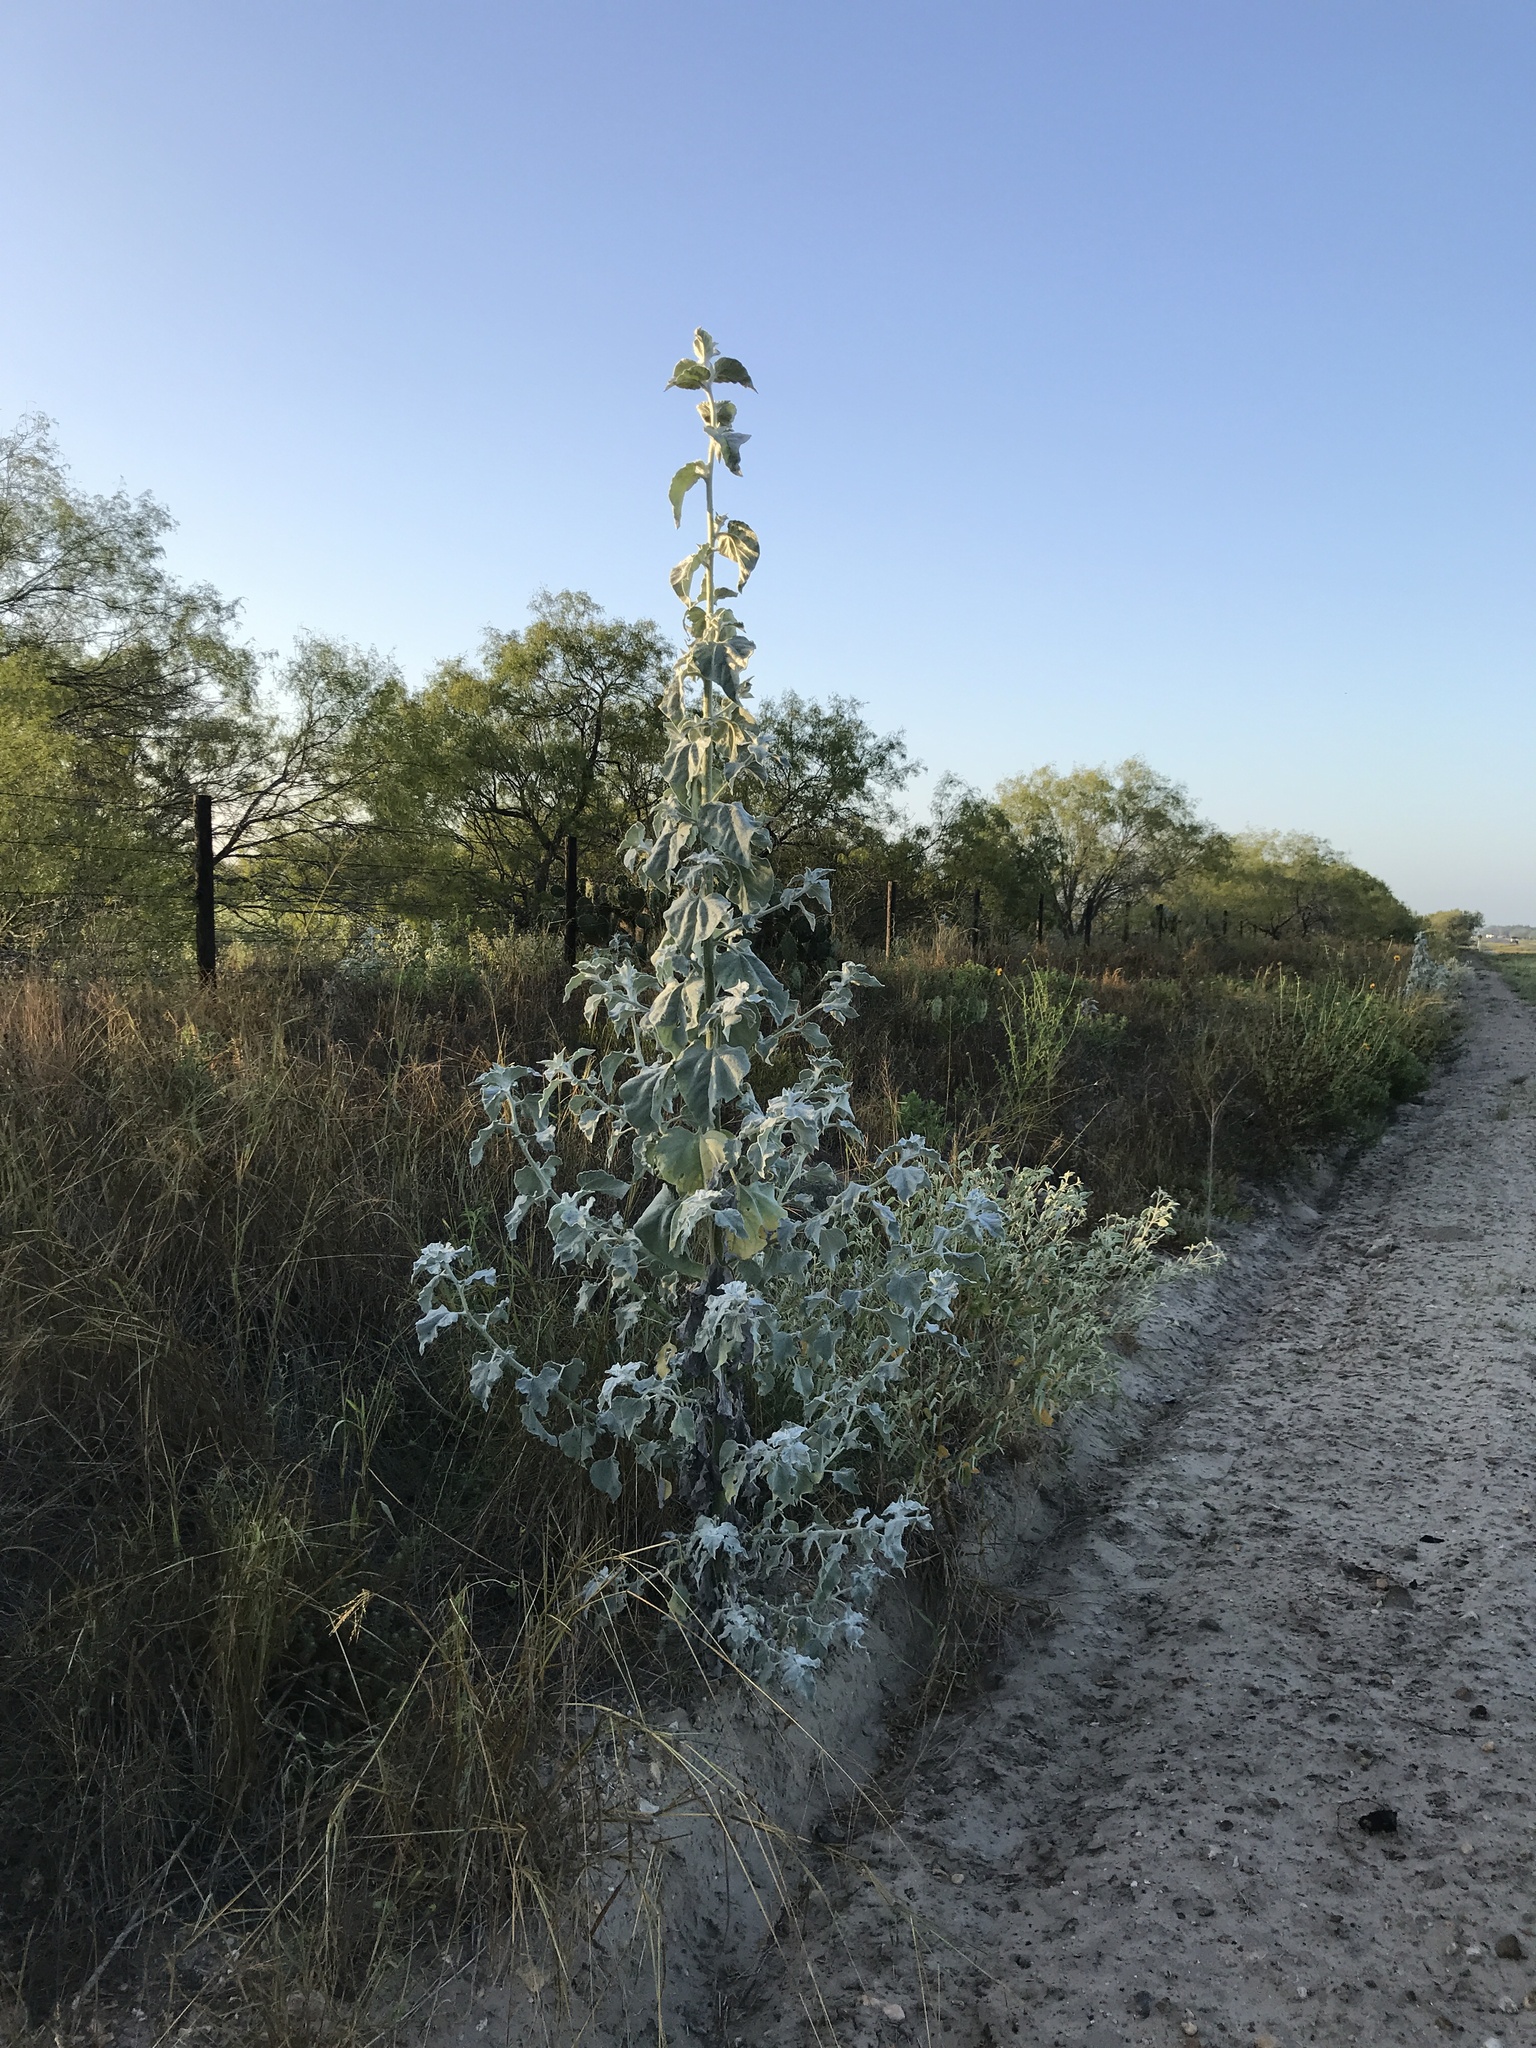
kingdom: Plantae
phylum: Tracheophyta
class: Magnoliopsida
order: Asterales
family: Asteraceae
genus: Helianthus
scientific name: Helianthus argophyllus
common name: Silverleaf sunflower
